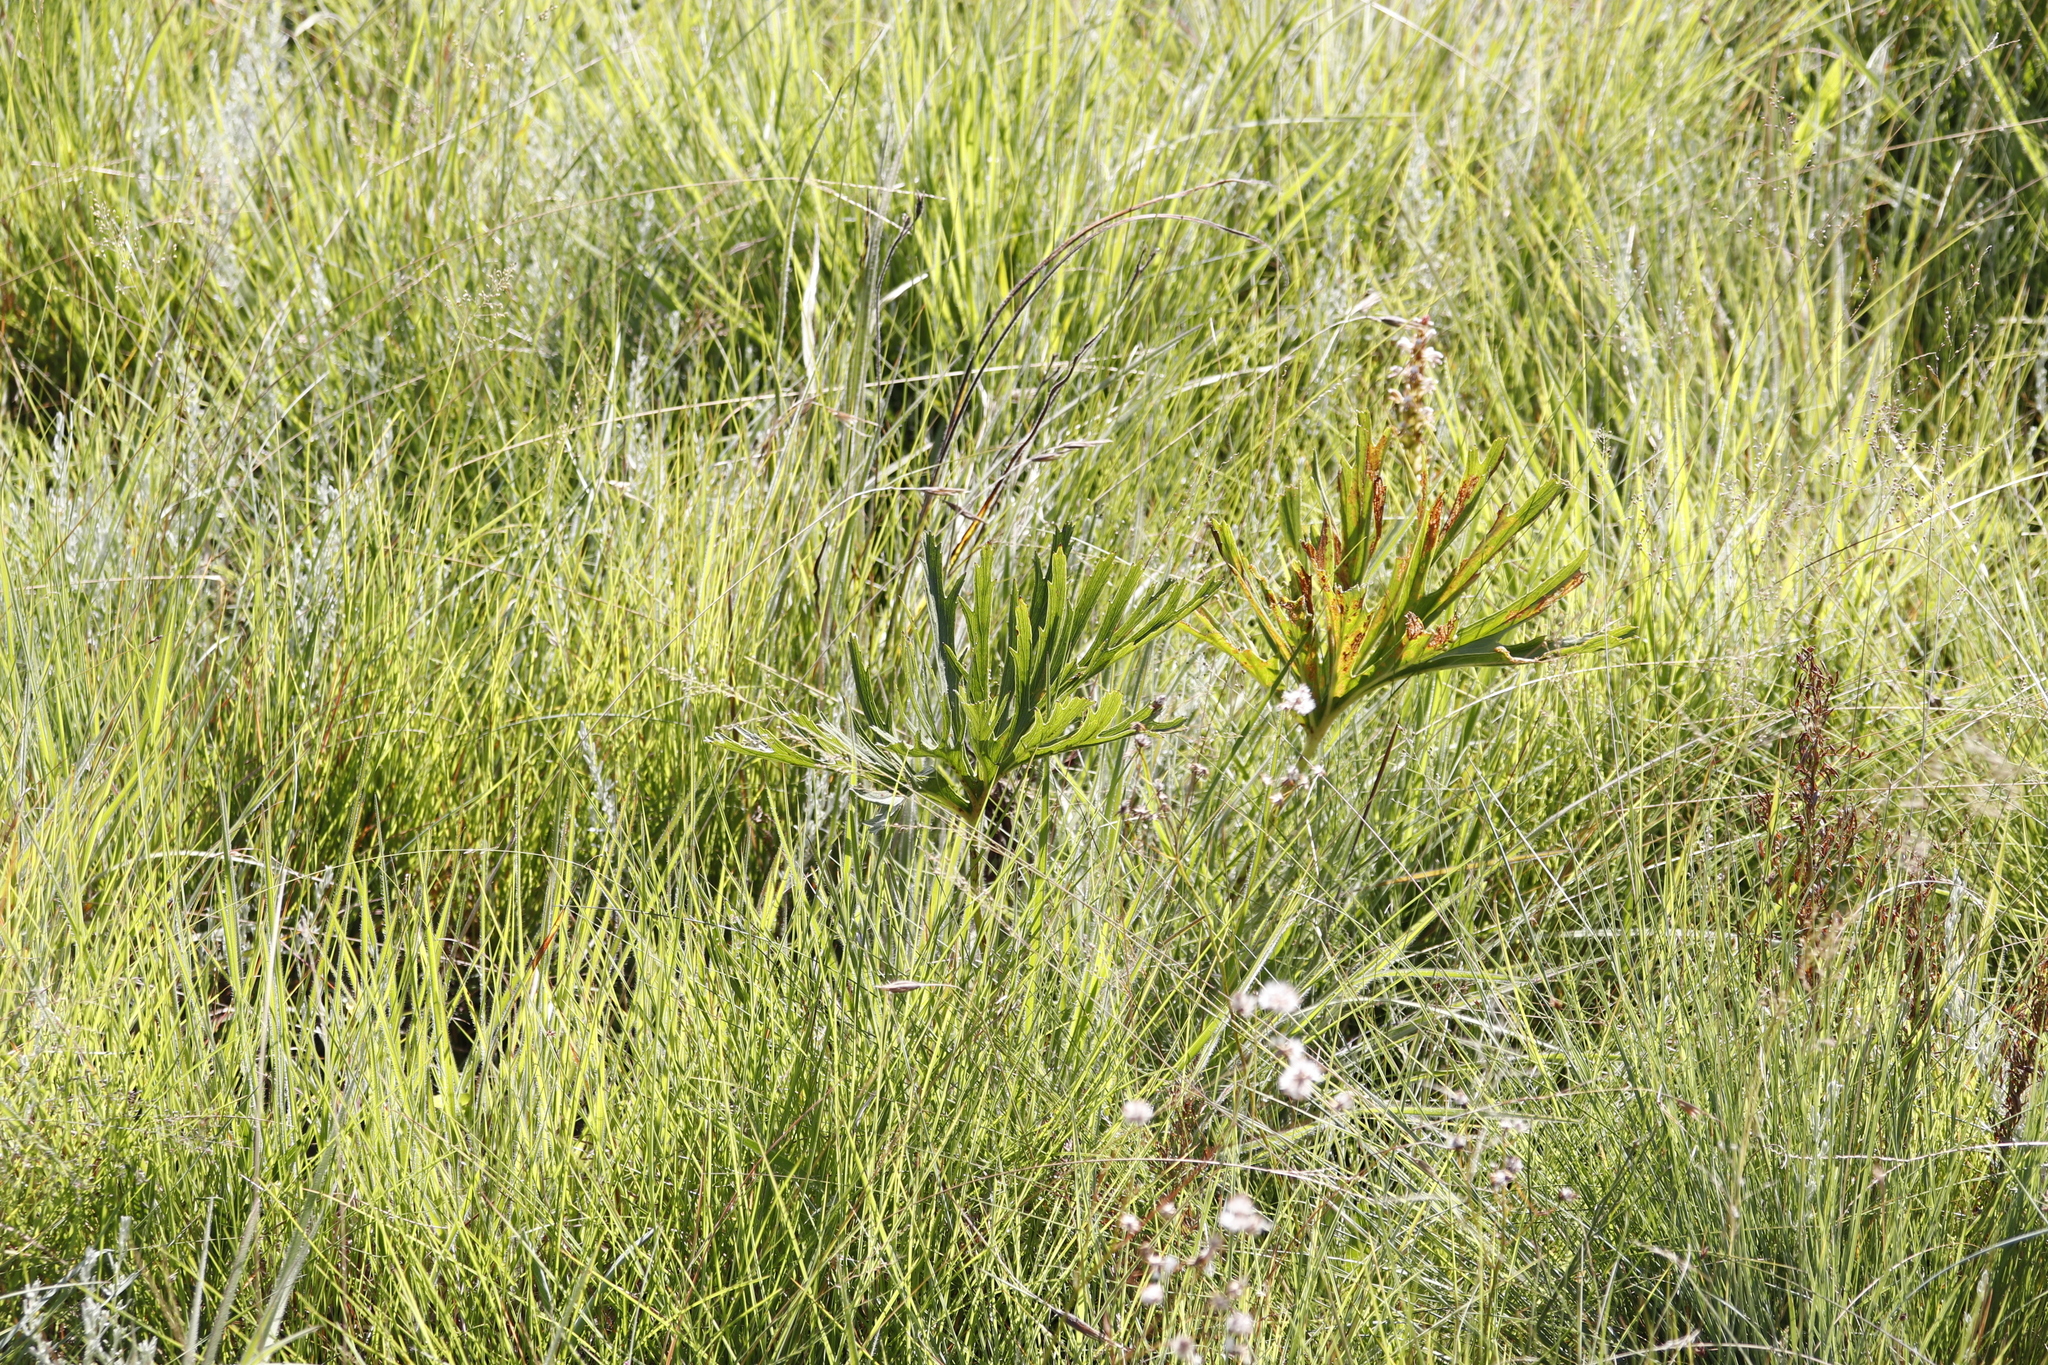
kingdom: Plantae
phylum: Tracheophyta
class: Magnoliopsida
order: Geraniales
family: Geraniaceae
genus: Pelargonium
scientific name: Pelargonium luridum
